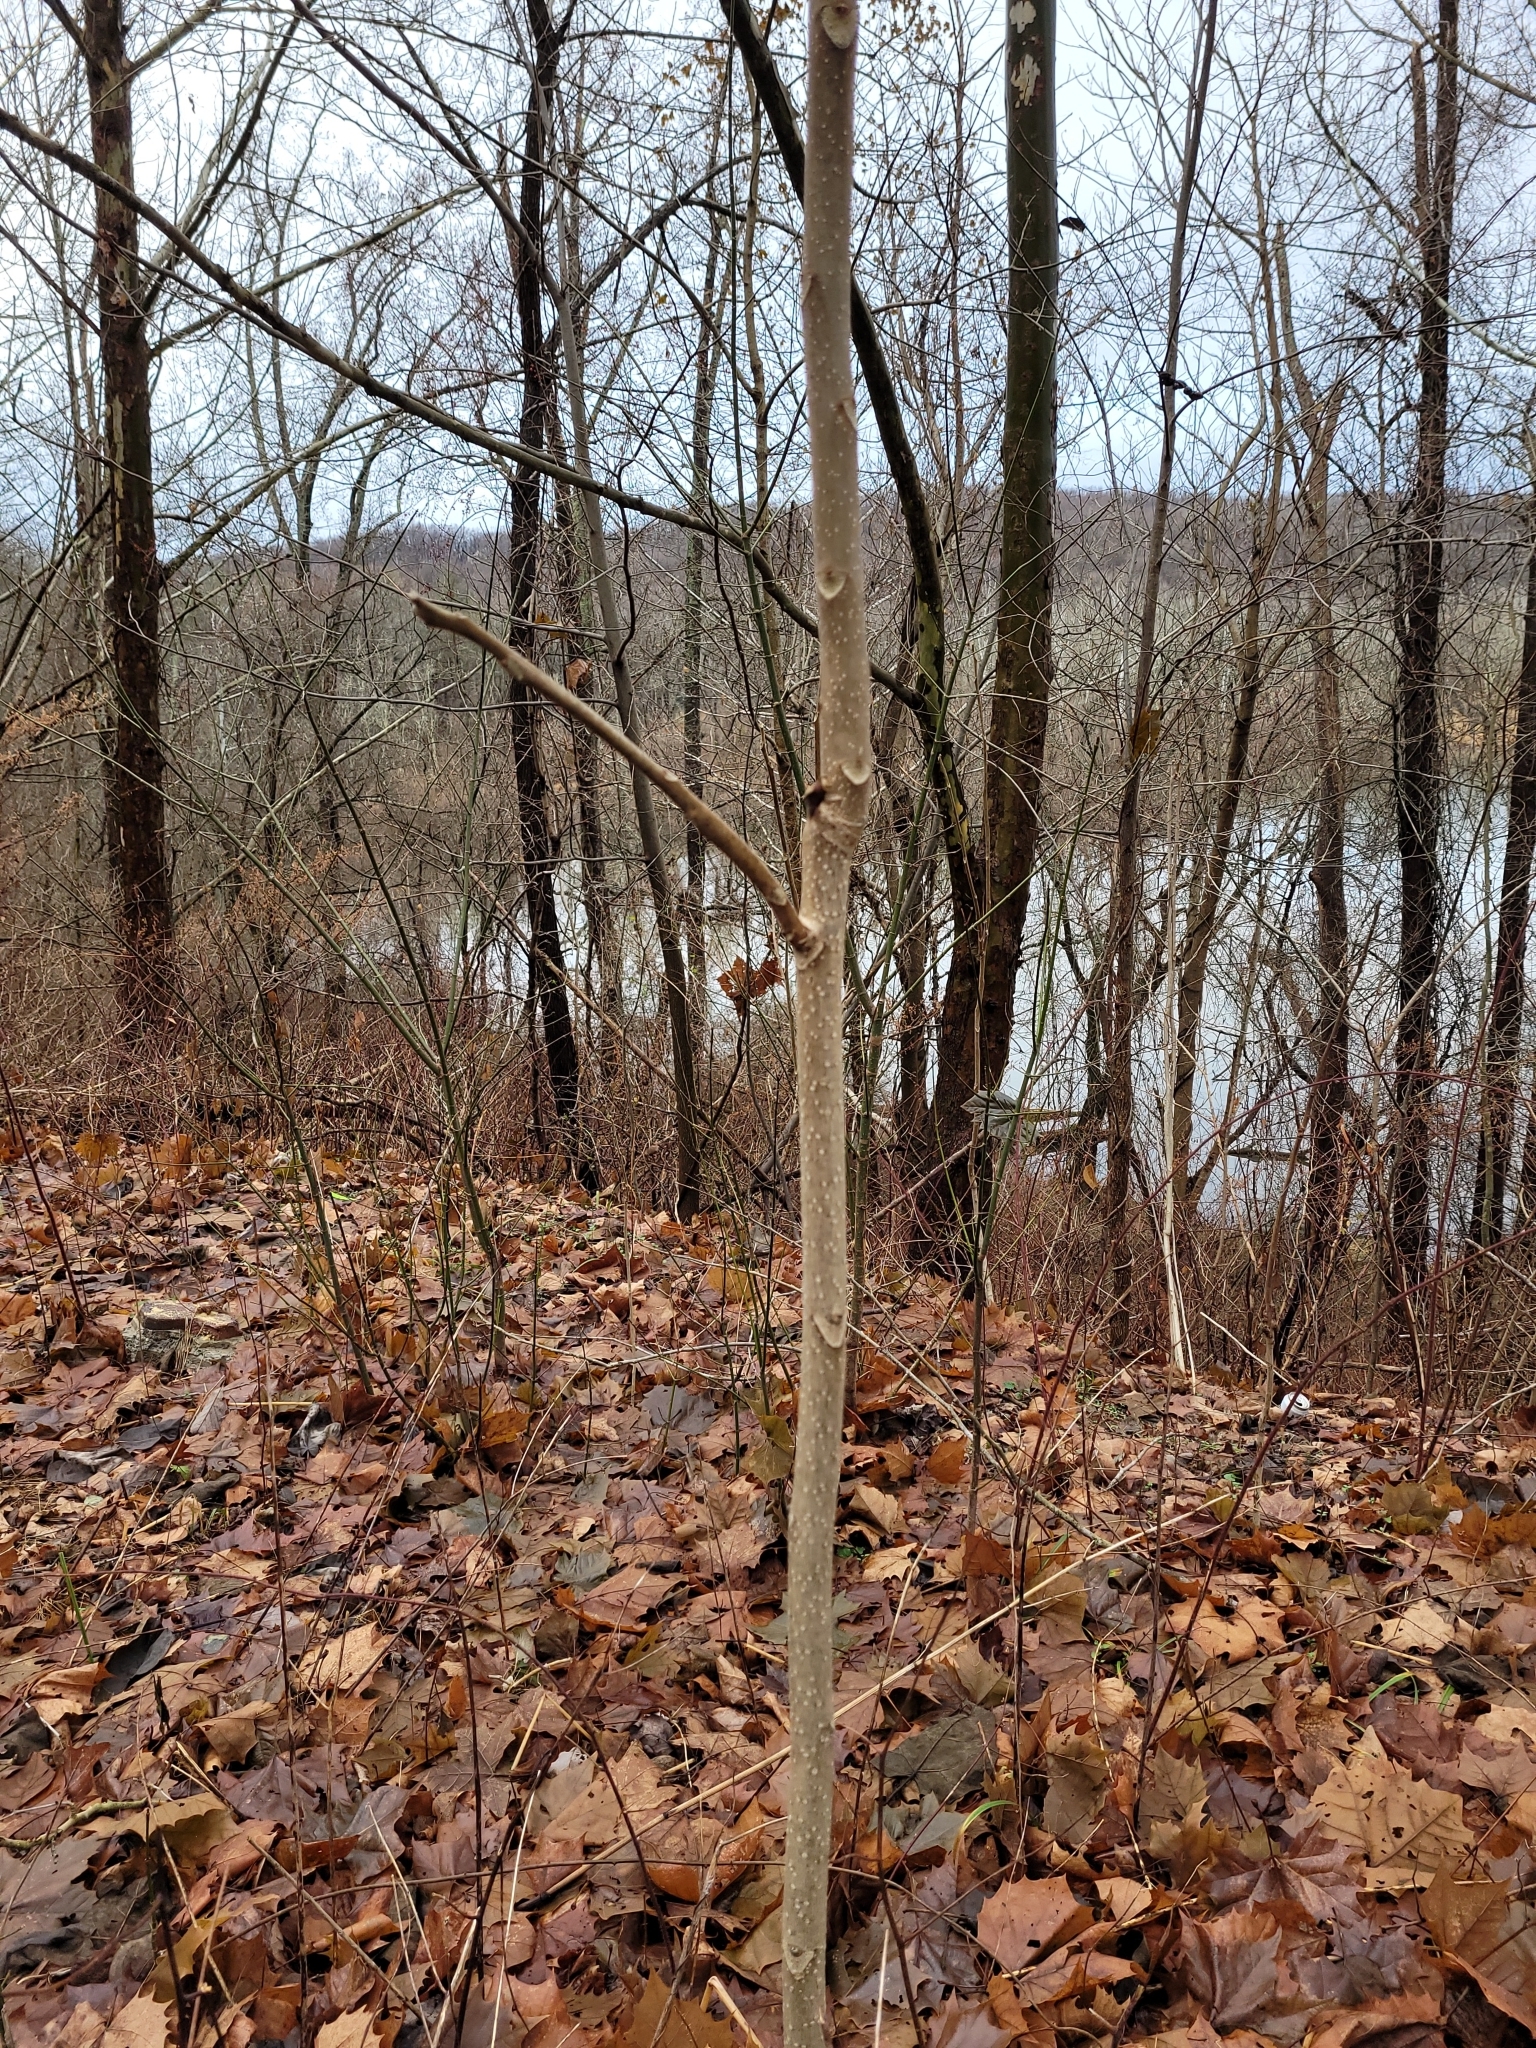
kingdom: Plantae
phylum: Tracheophyta
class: Magnoliopsida
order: Sapindales
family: Simaroubaceae
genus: Ailanthus
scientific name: Ailanthus altissima
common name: Tree-of-heaven
